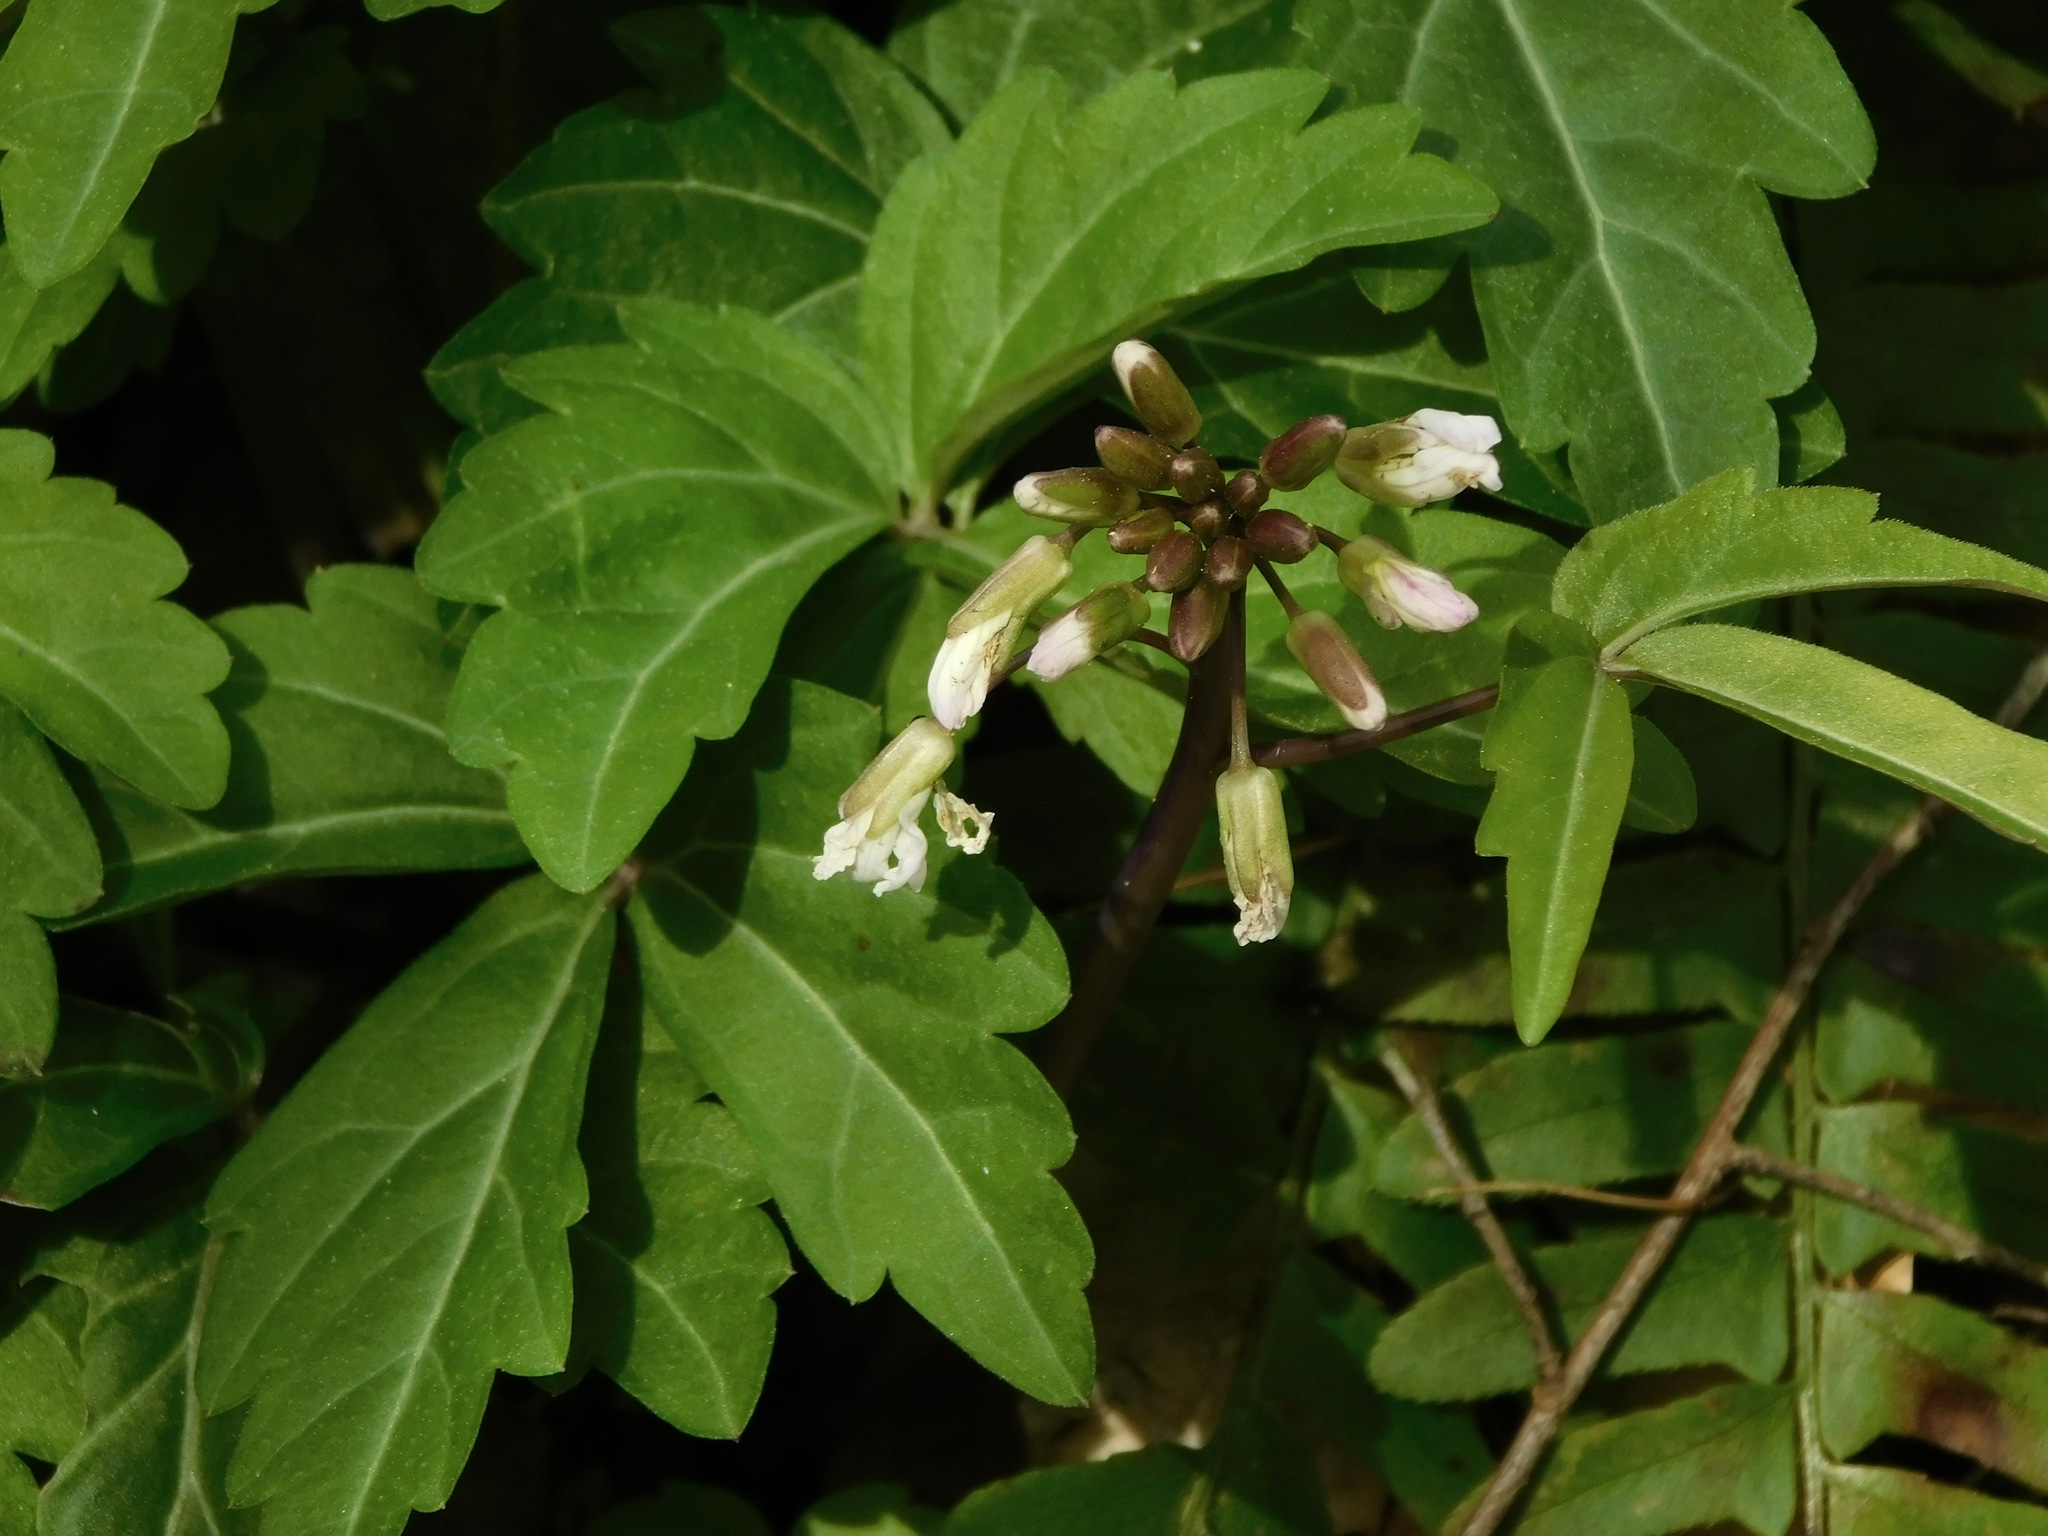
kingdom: Plantae
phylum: Tracheophyta
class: Magnoliopsida
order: Brassicales
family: Brassicaceae
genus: Cardamine
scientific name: Cardamine diphylla
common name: Broad-leaved toothwort
